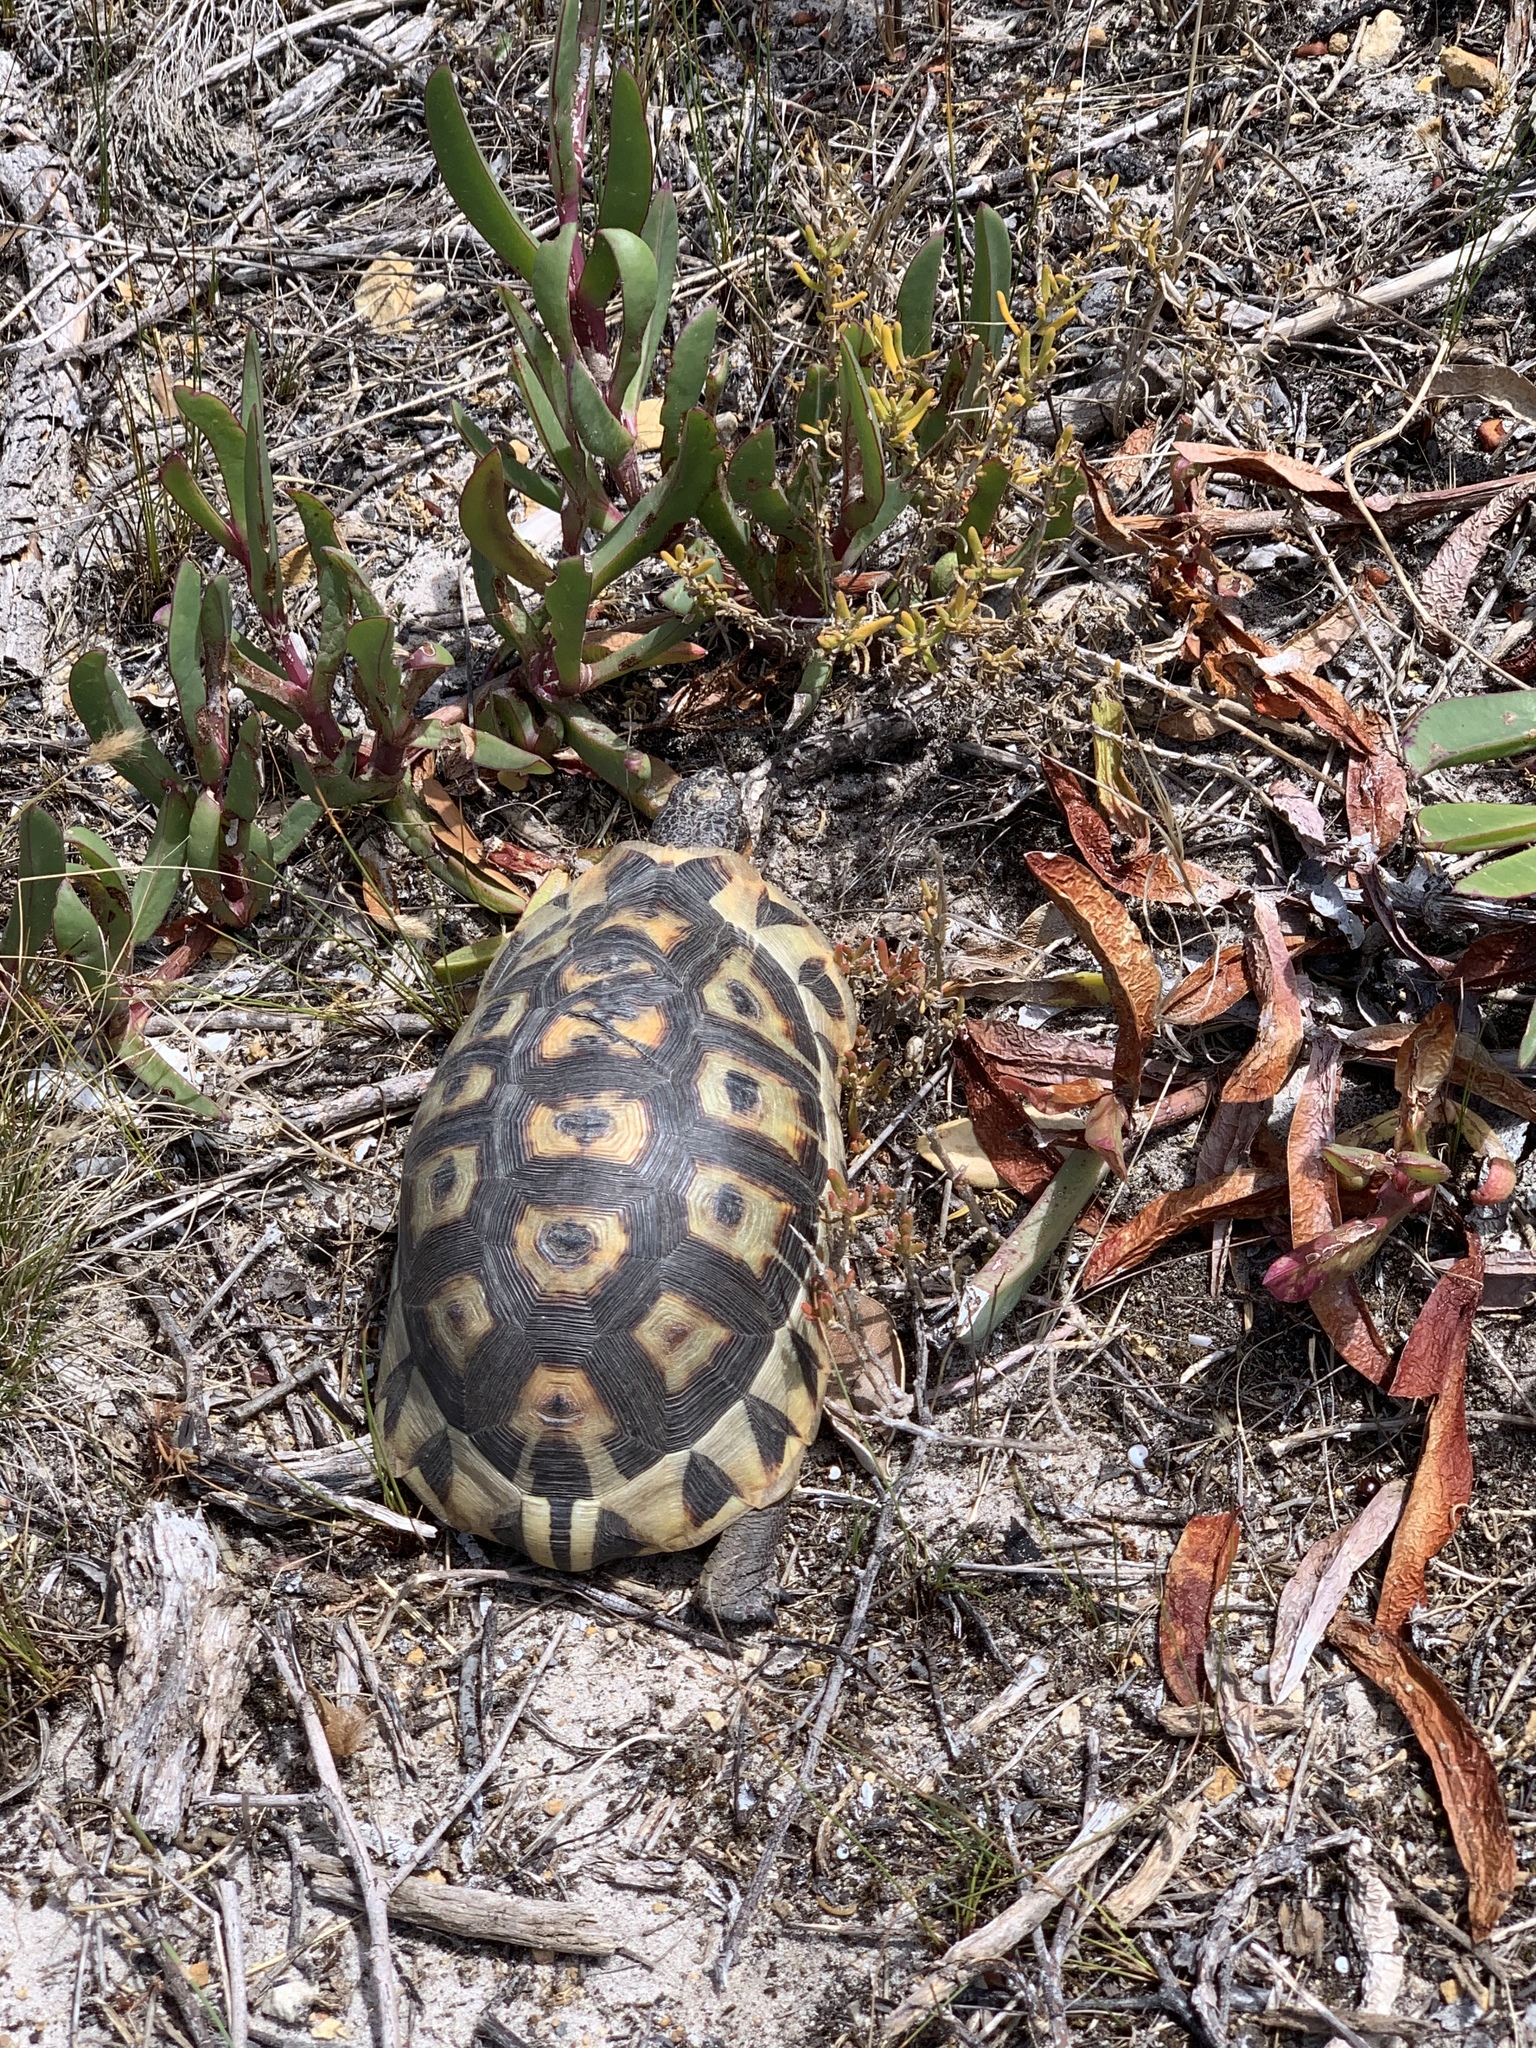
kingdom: Animalia
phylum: Chordata
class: Testudines
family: Testudinidae
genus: Chersina
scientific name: Chersina angulata
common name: South african bowsprit tortoise
